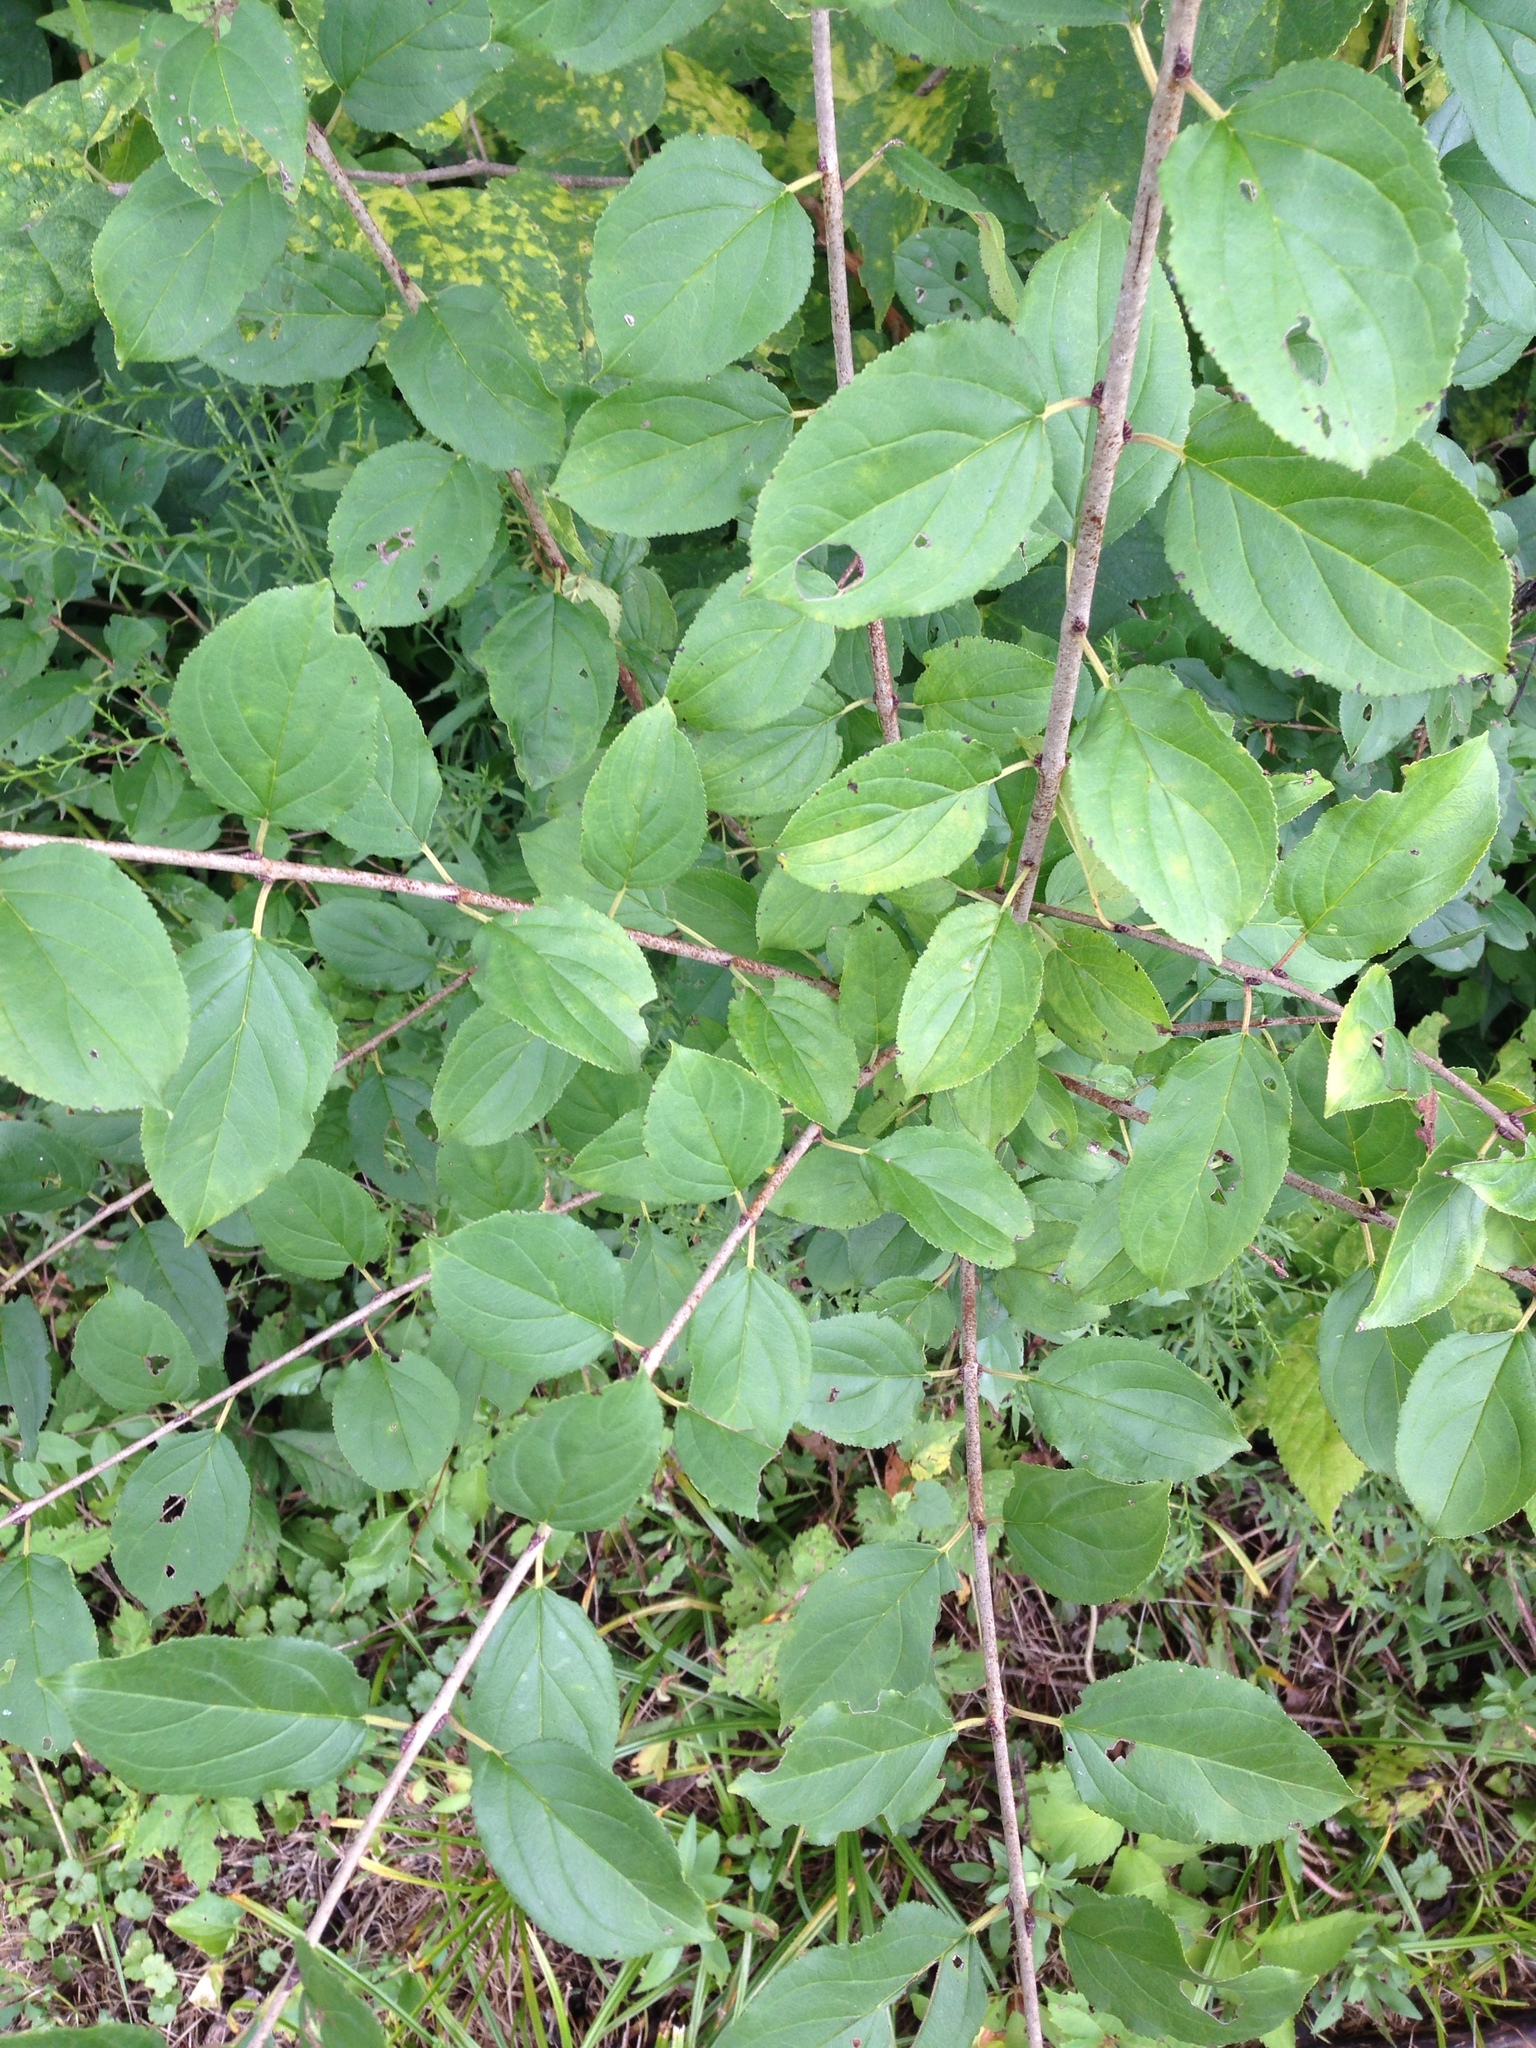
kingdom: Plantae
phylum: Tracheophyta
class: Magnoliopsida
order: Rosales
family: Rhamnaceae
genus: Rhamnus
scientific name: Rhamnus cathartica
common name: Common buckthorn
